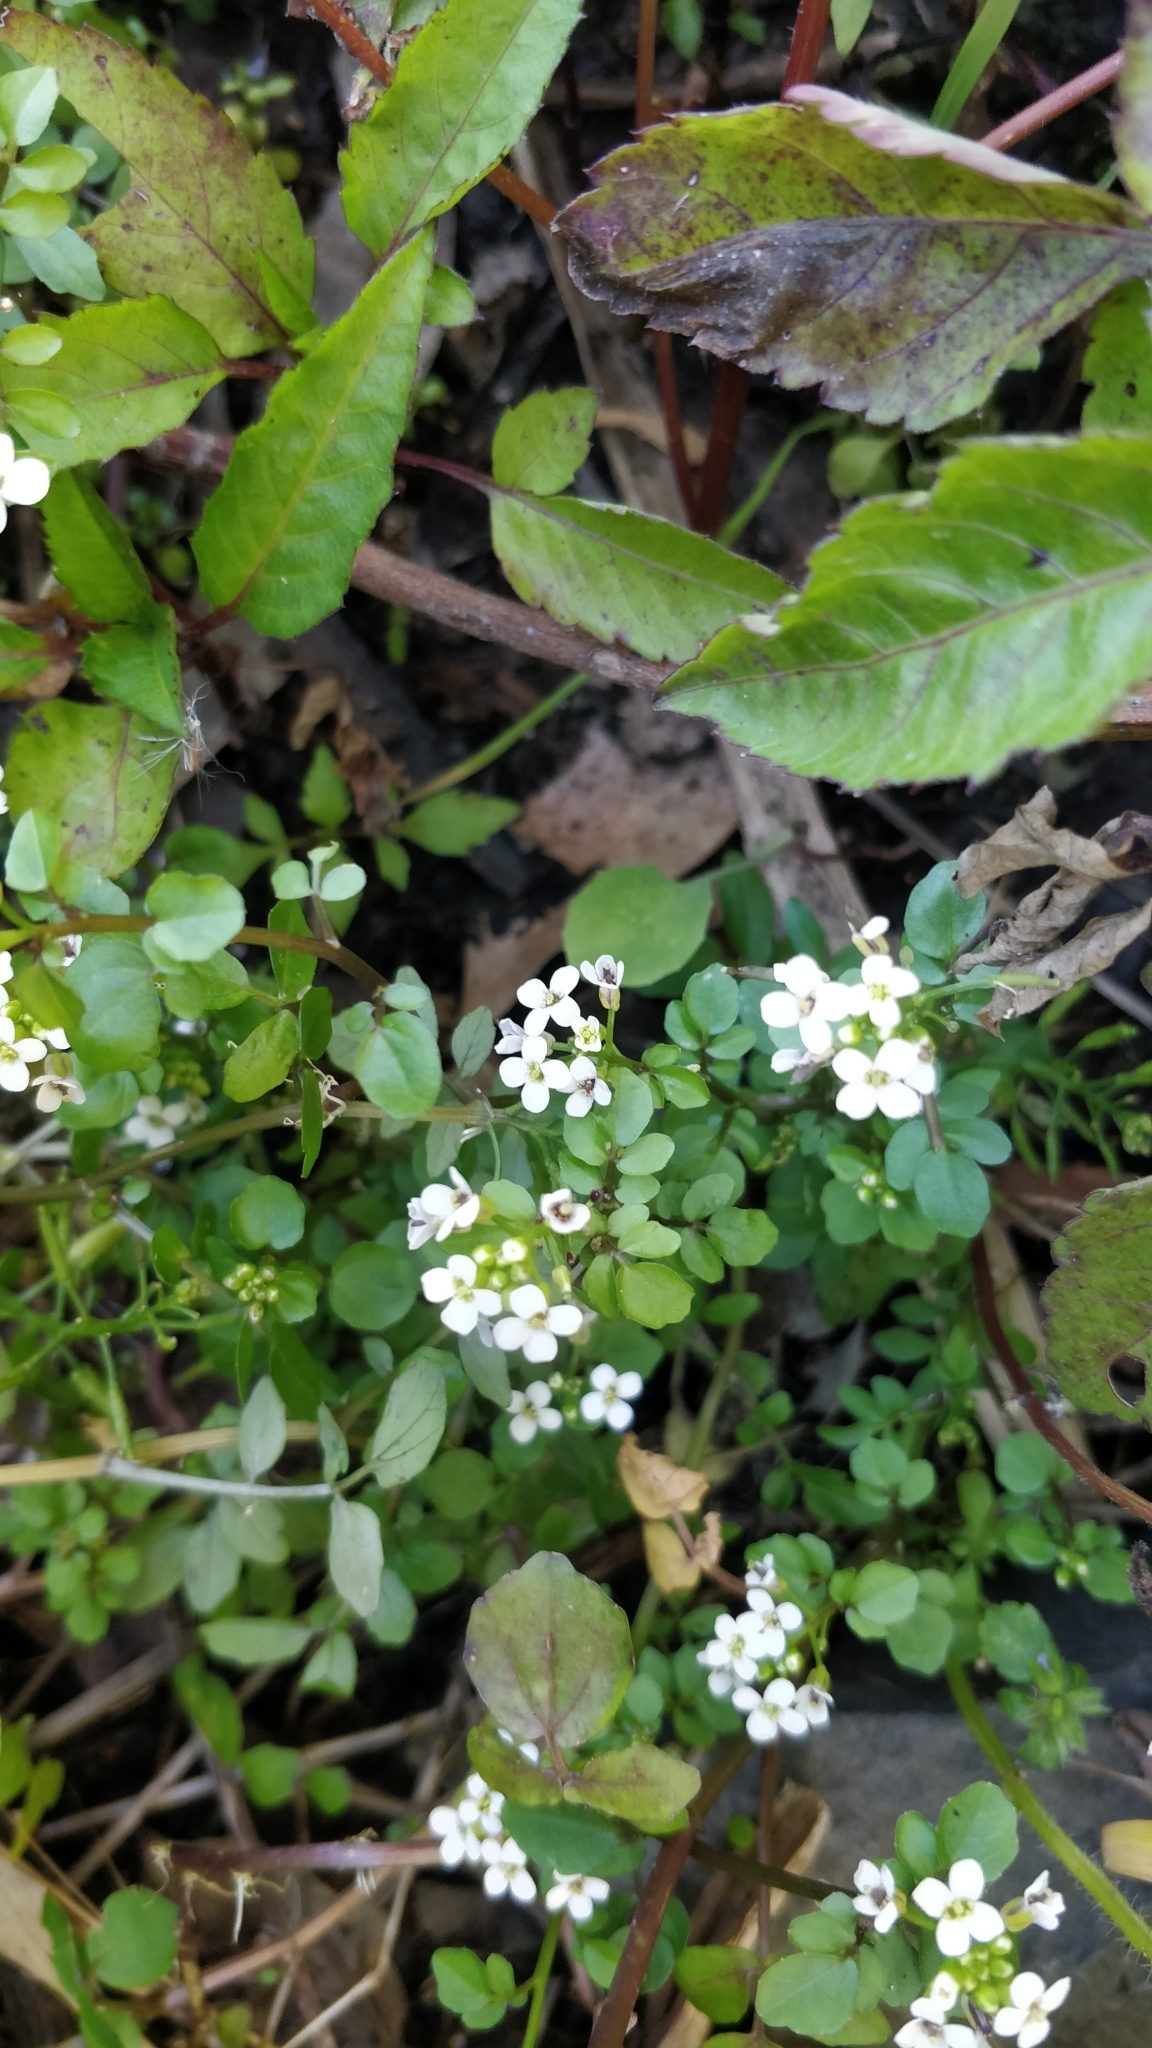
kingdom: Plantae
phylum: Tracheophyta
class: Magnoliopsida
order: Brassicales
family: Brassicaceae
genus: Nasturtium
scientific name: Nasturtium sterile
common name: Yellowcress
